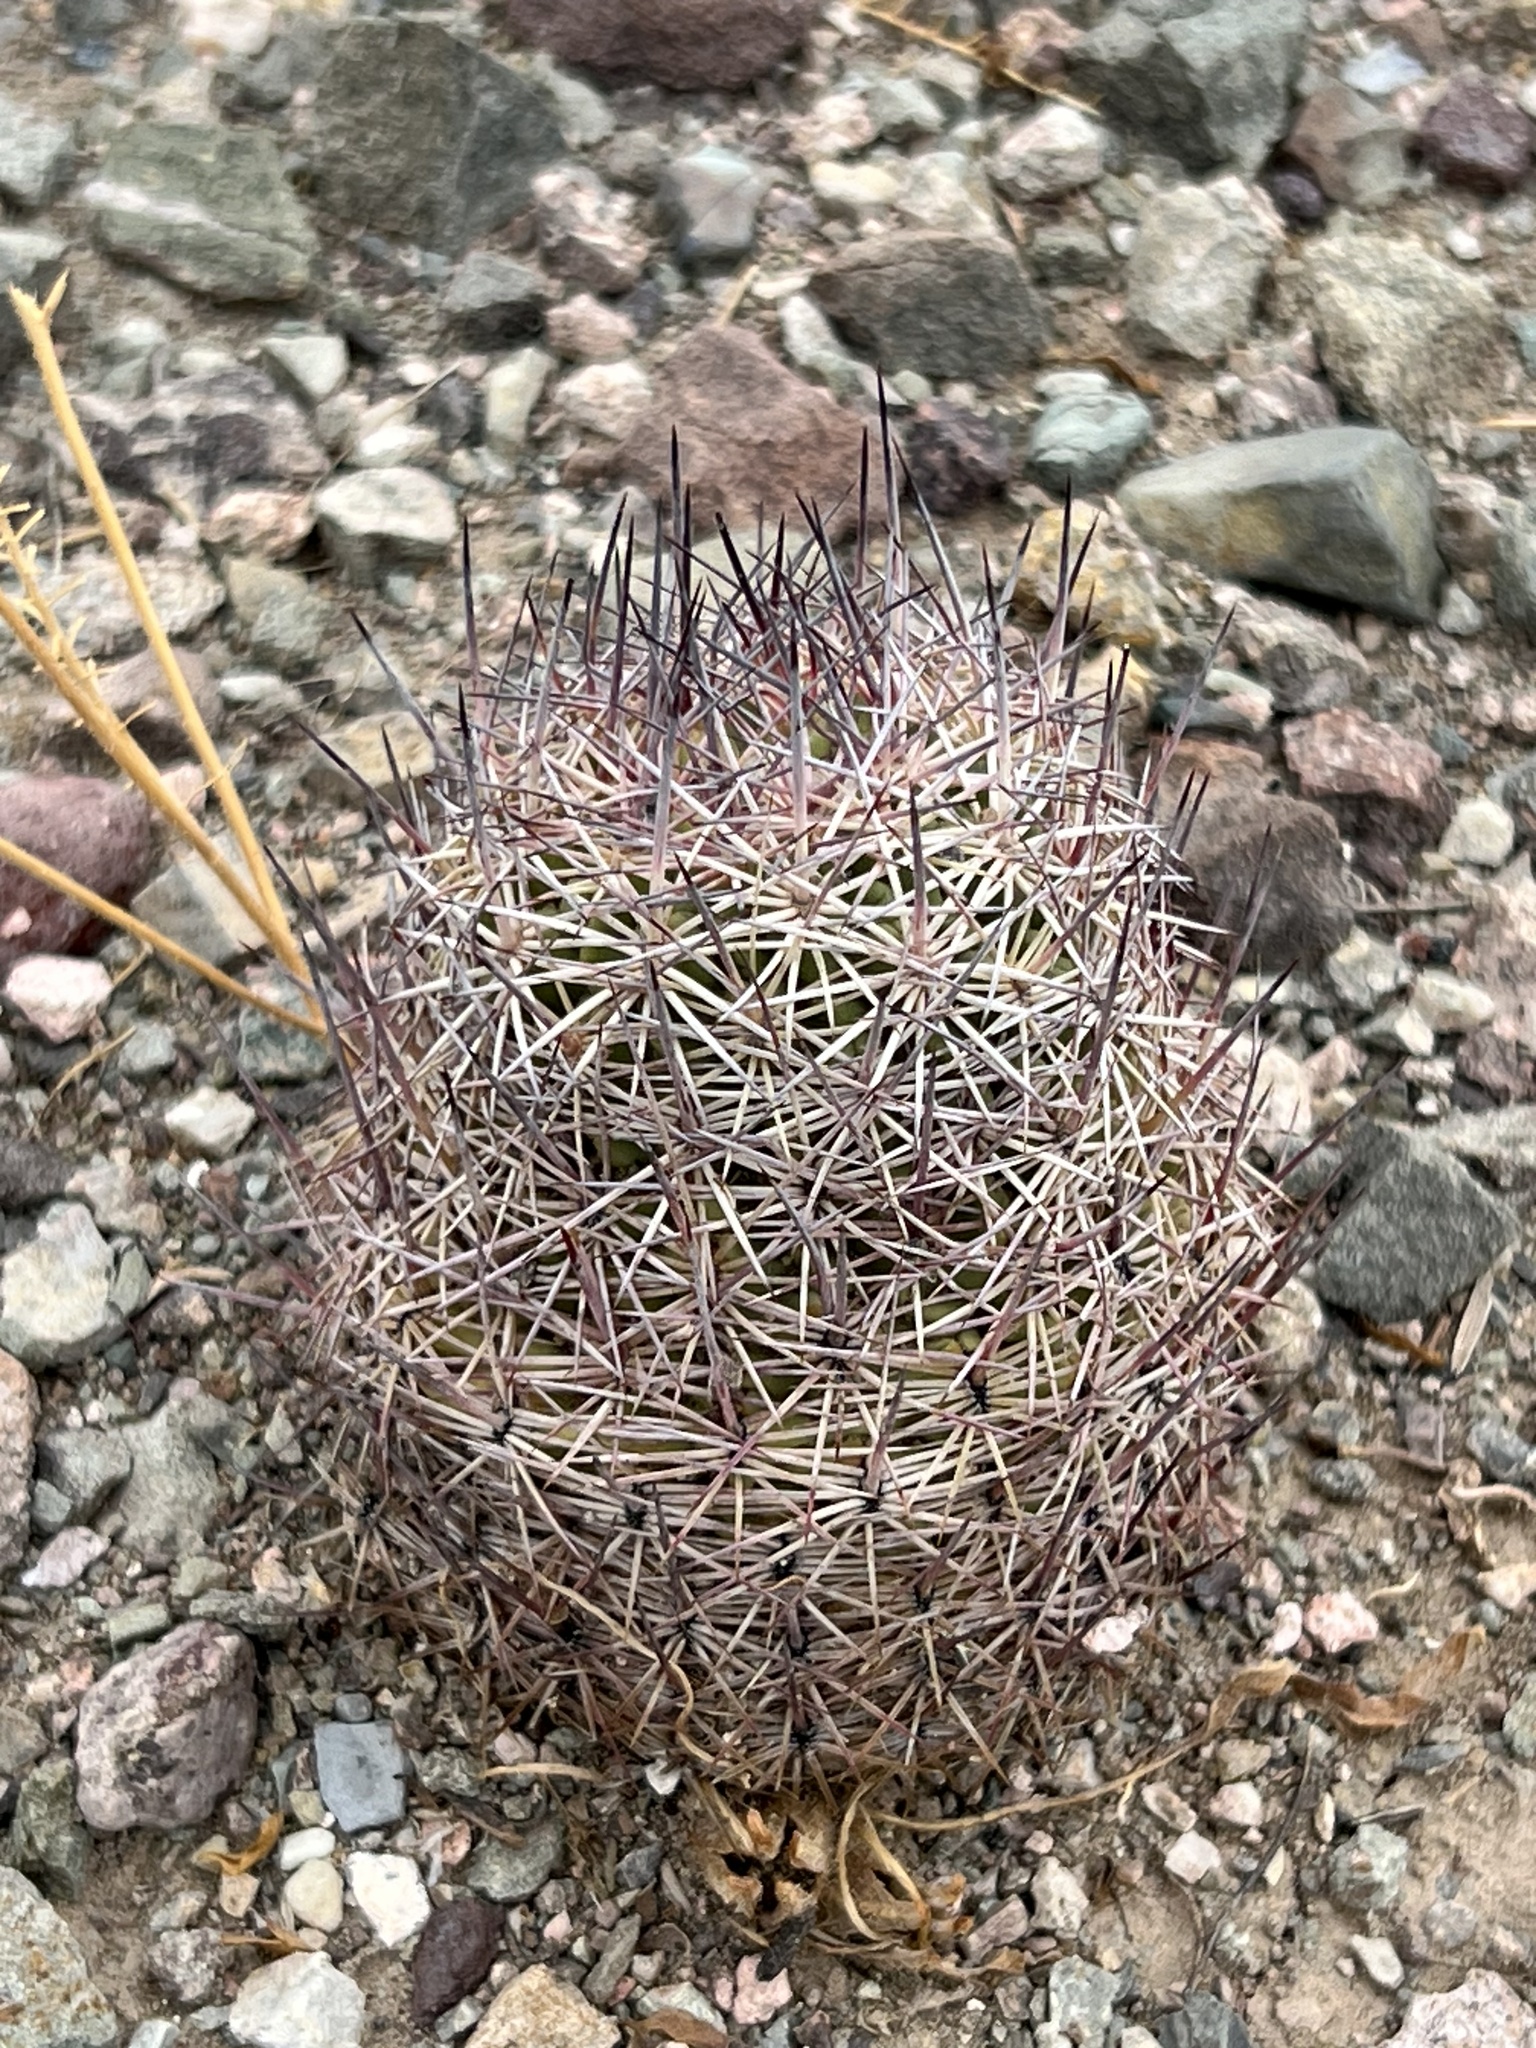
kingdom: Plantae
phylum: Tracheophyta
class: Magnoliopsida
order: Caryophyllales
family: Cactaceae
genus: Sclerocactus
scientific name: Sclerocactus johnsonii
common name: Eight-spine fishhook cactus
